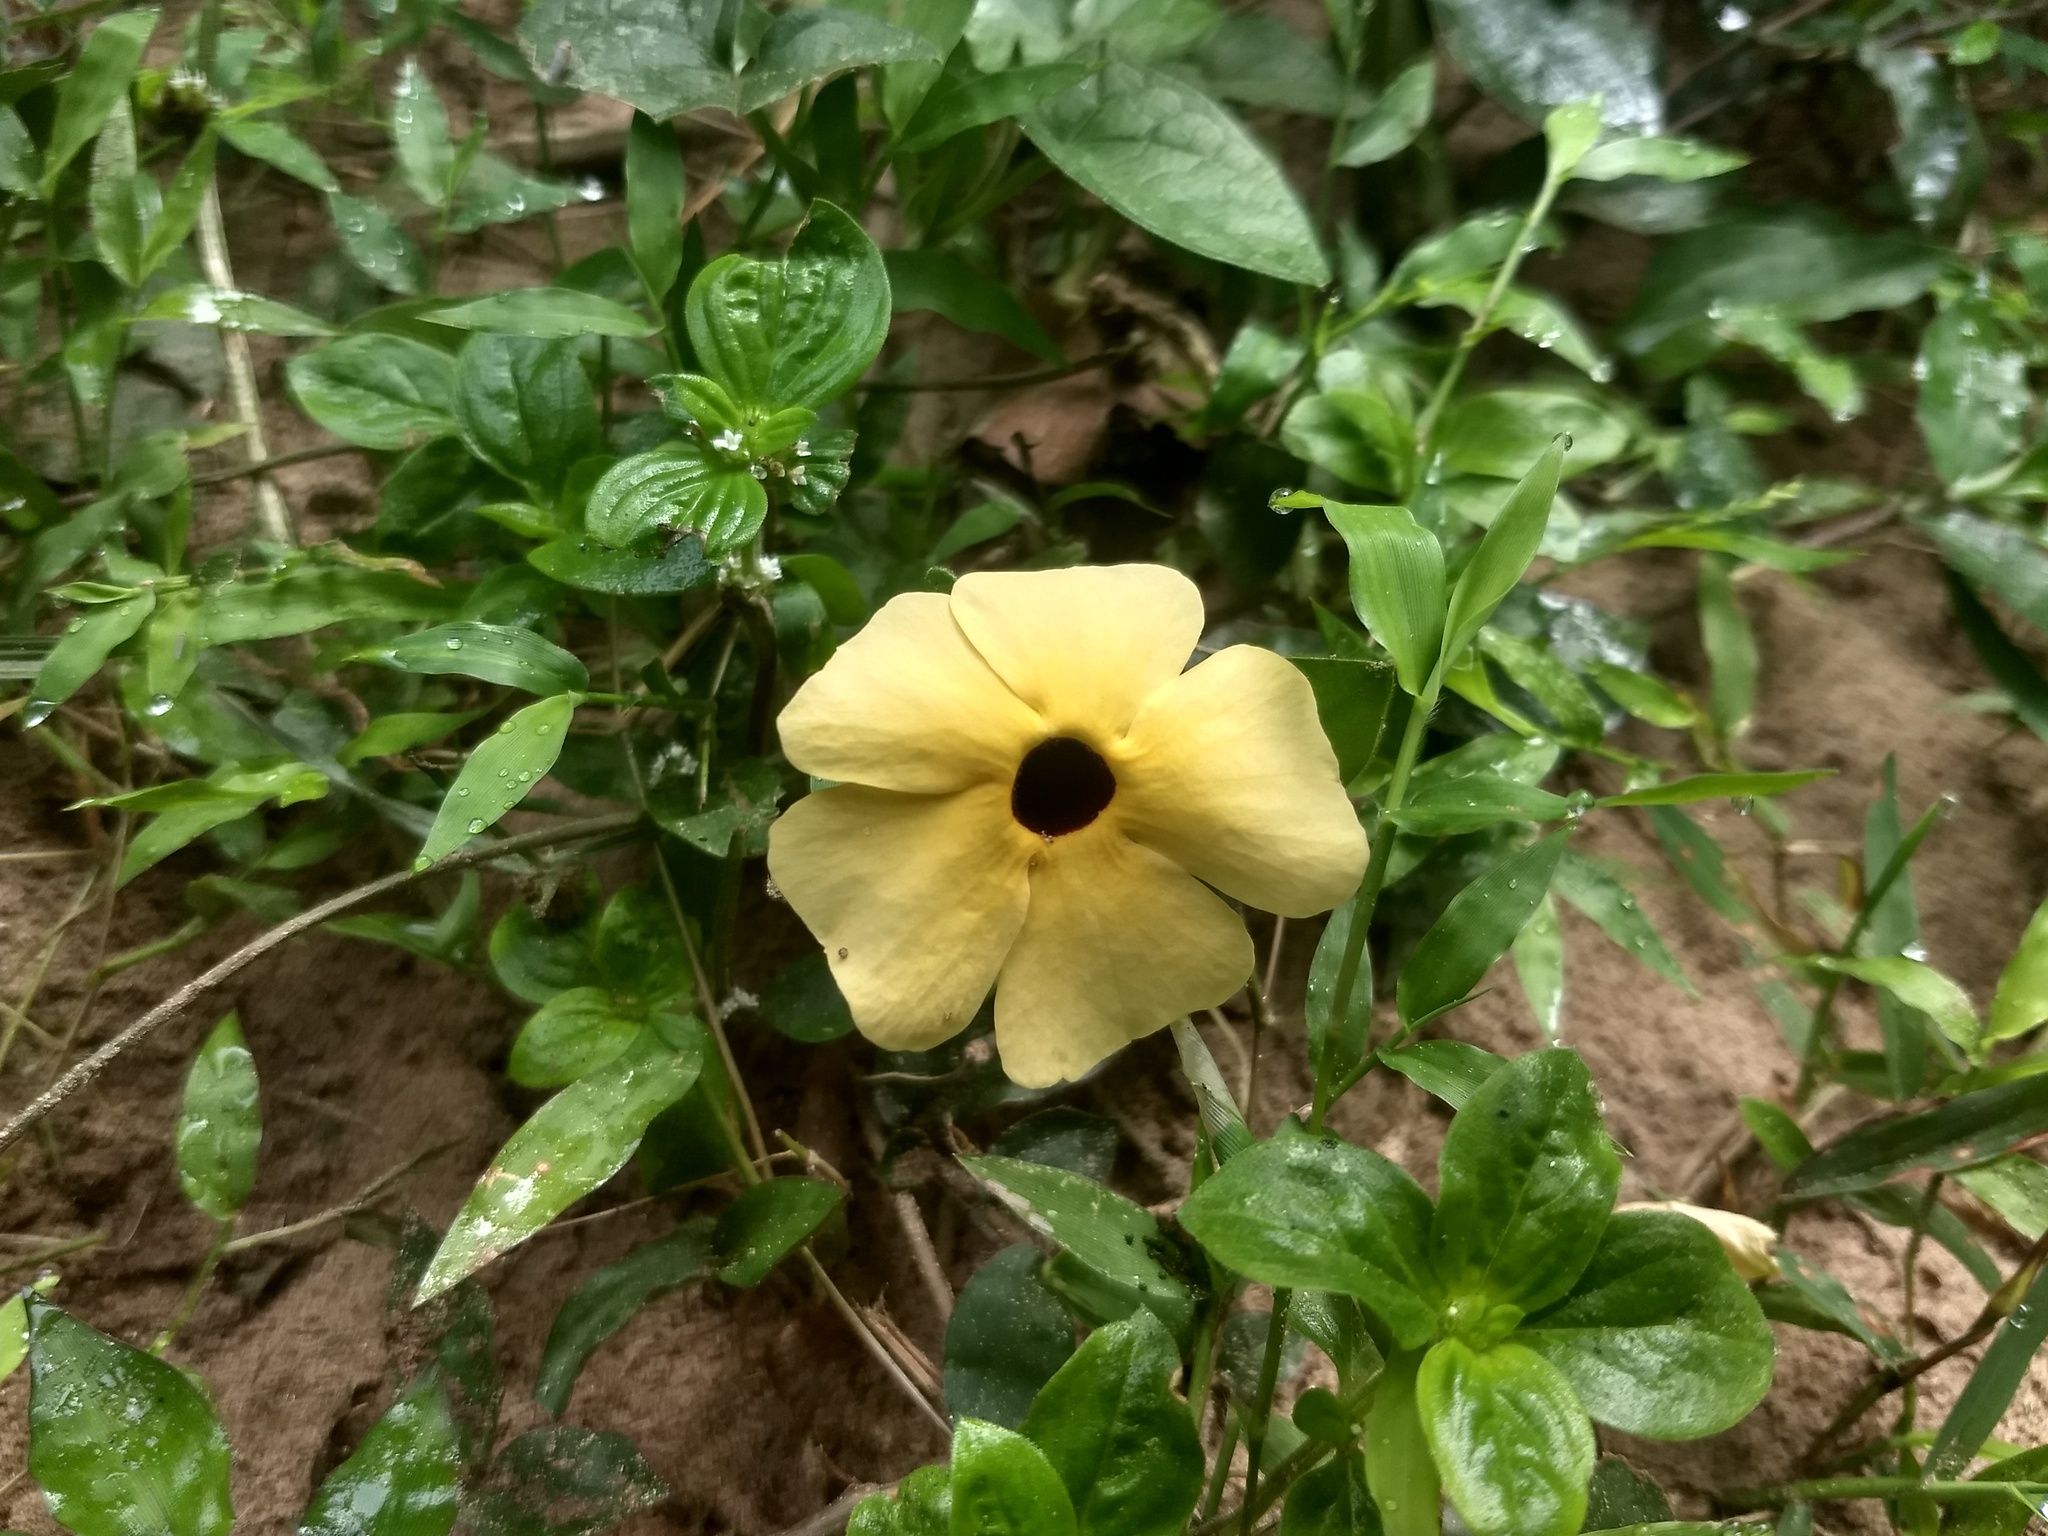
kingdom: Plantae
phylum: Tracheophyta
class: Magnoliopsida
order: Lamiales
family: Acanthaceae
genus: Thunbergia
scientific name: Thunbergia alata
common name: Blackeyed susan vine
